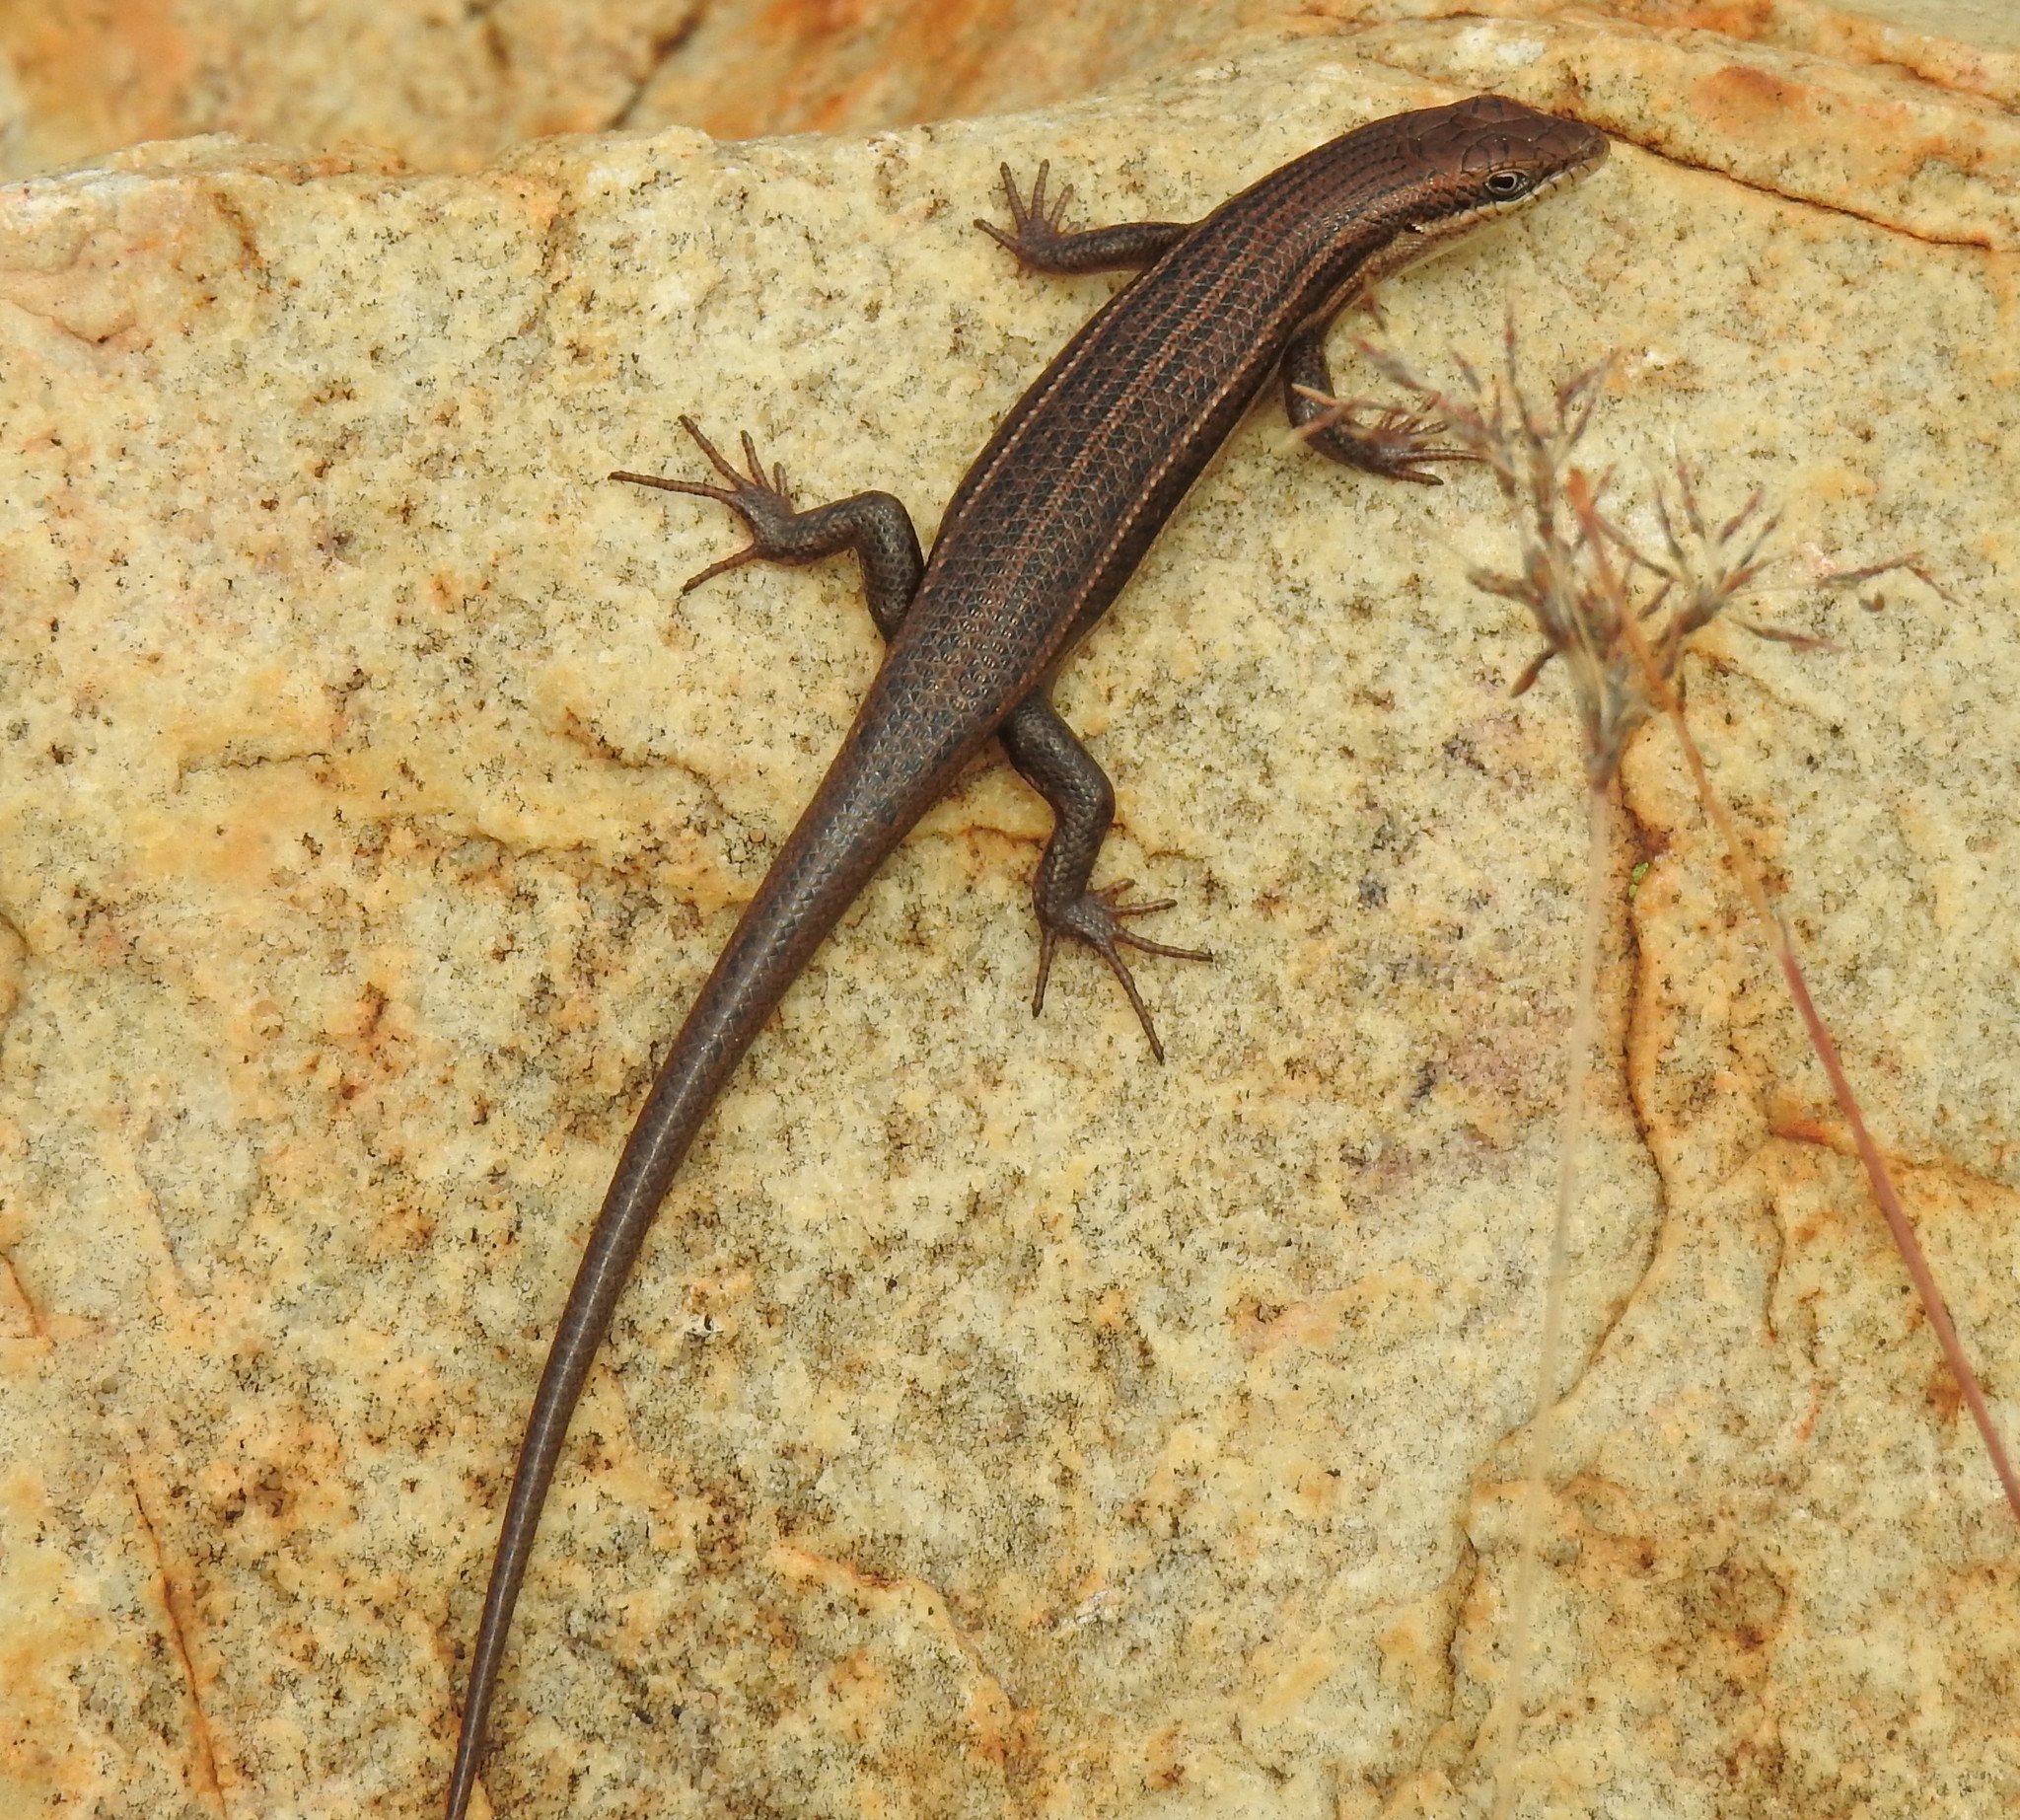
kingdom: Animalia
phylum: Chordata
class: Squamata
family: Scincidae
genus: Trachylepis
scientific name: Trachylepis laevigata
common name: Variable skink
